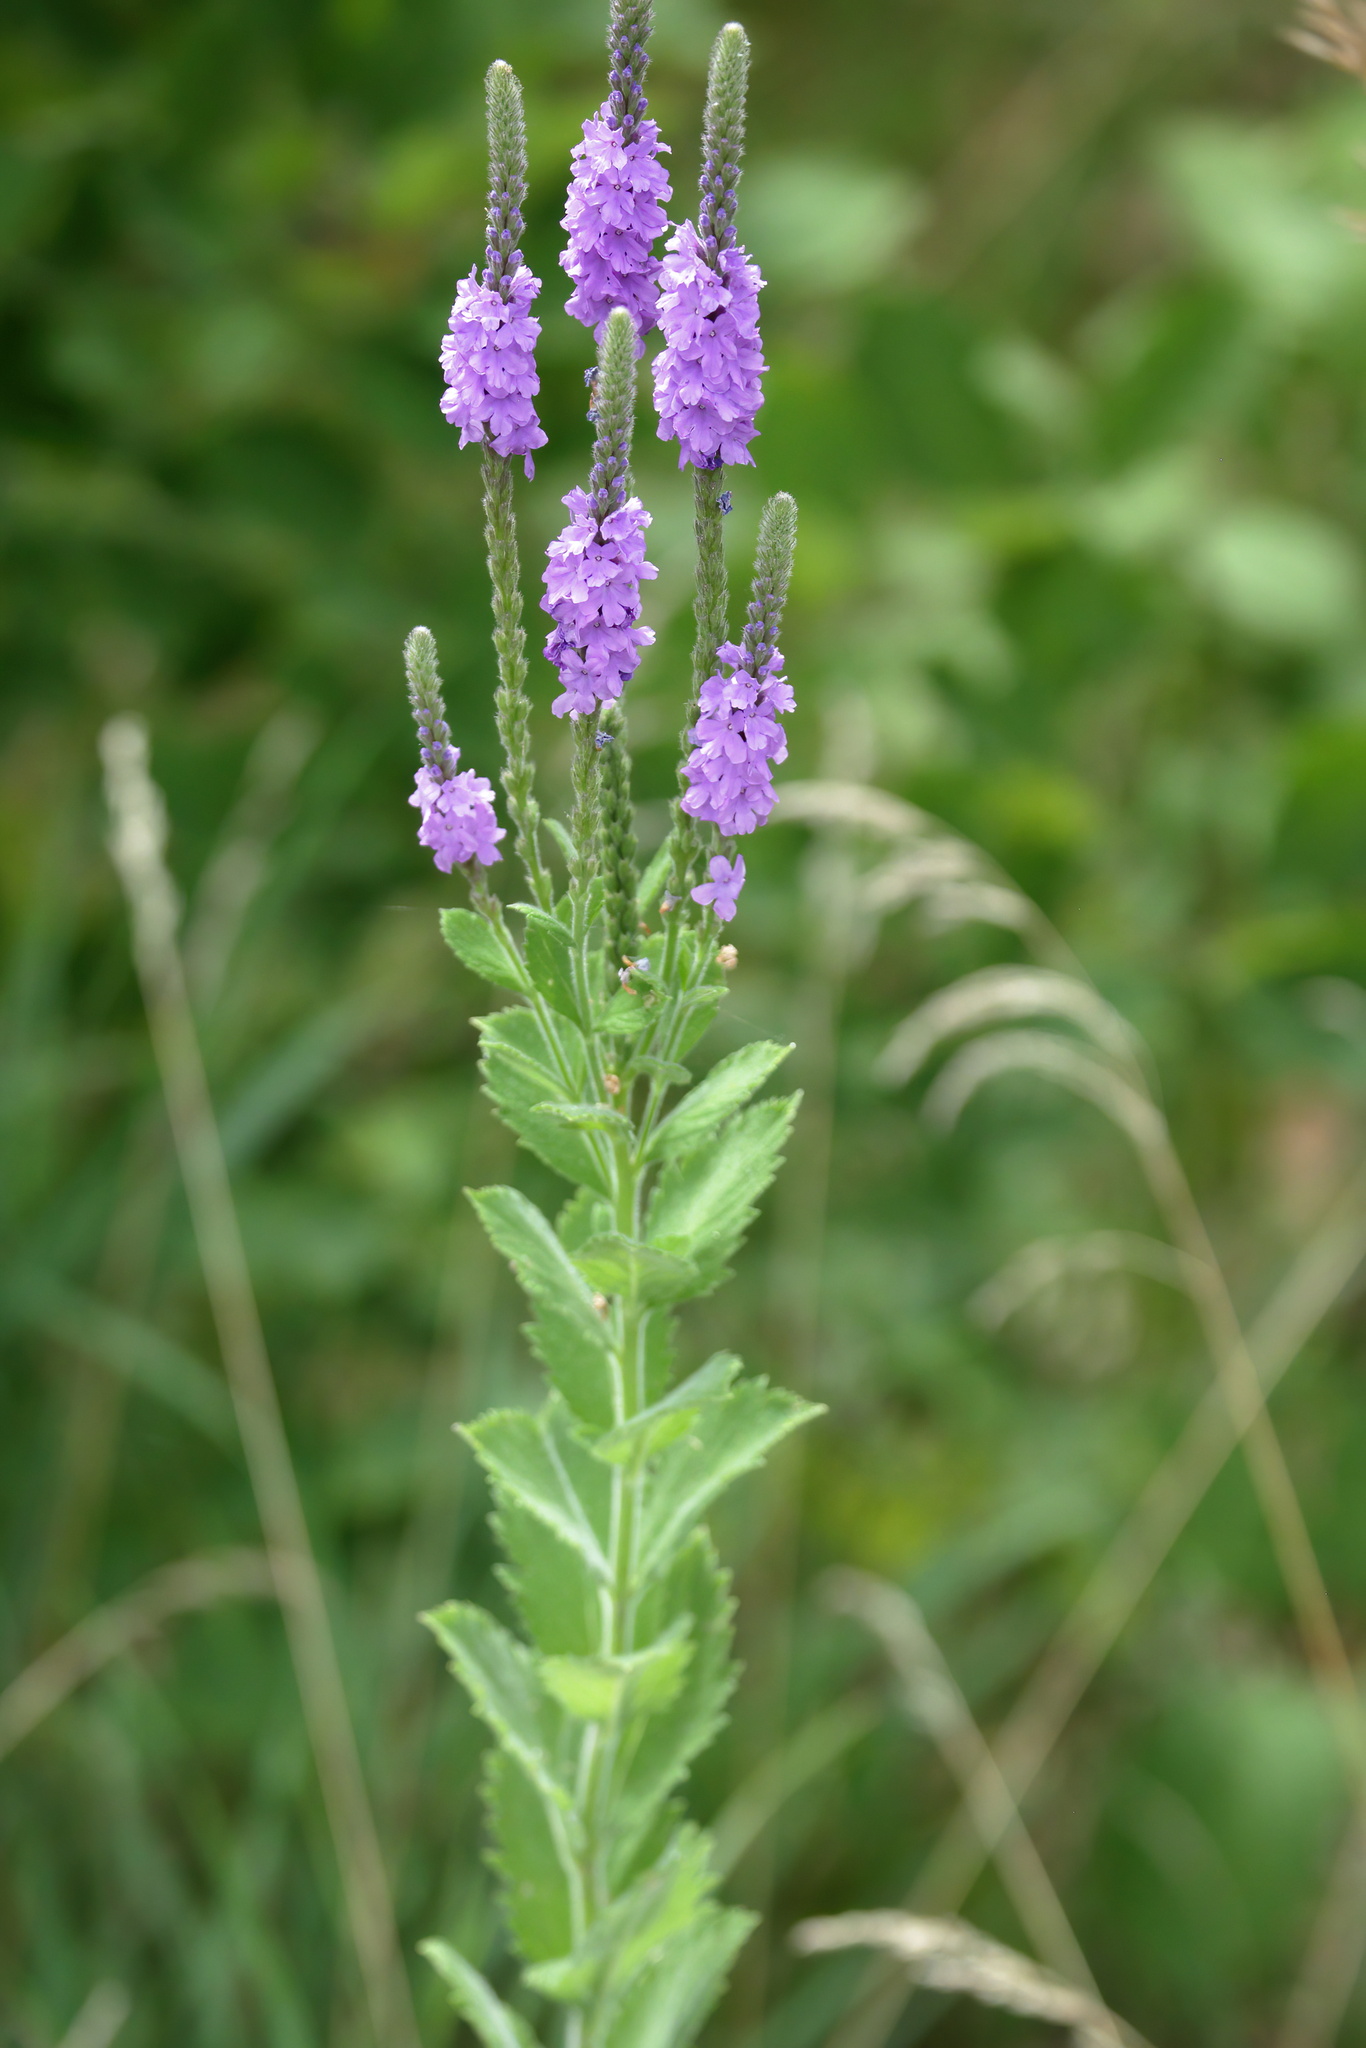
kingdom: Plantae
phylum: Tracheophyta
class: Magnoliopsida
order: Lamiales
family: Verbenaceae
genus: Verbena
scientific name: Verbena stricta
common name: Hoary vervain
